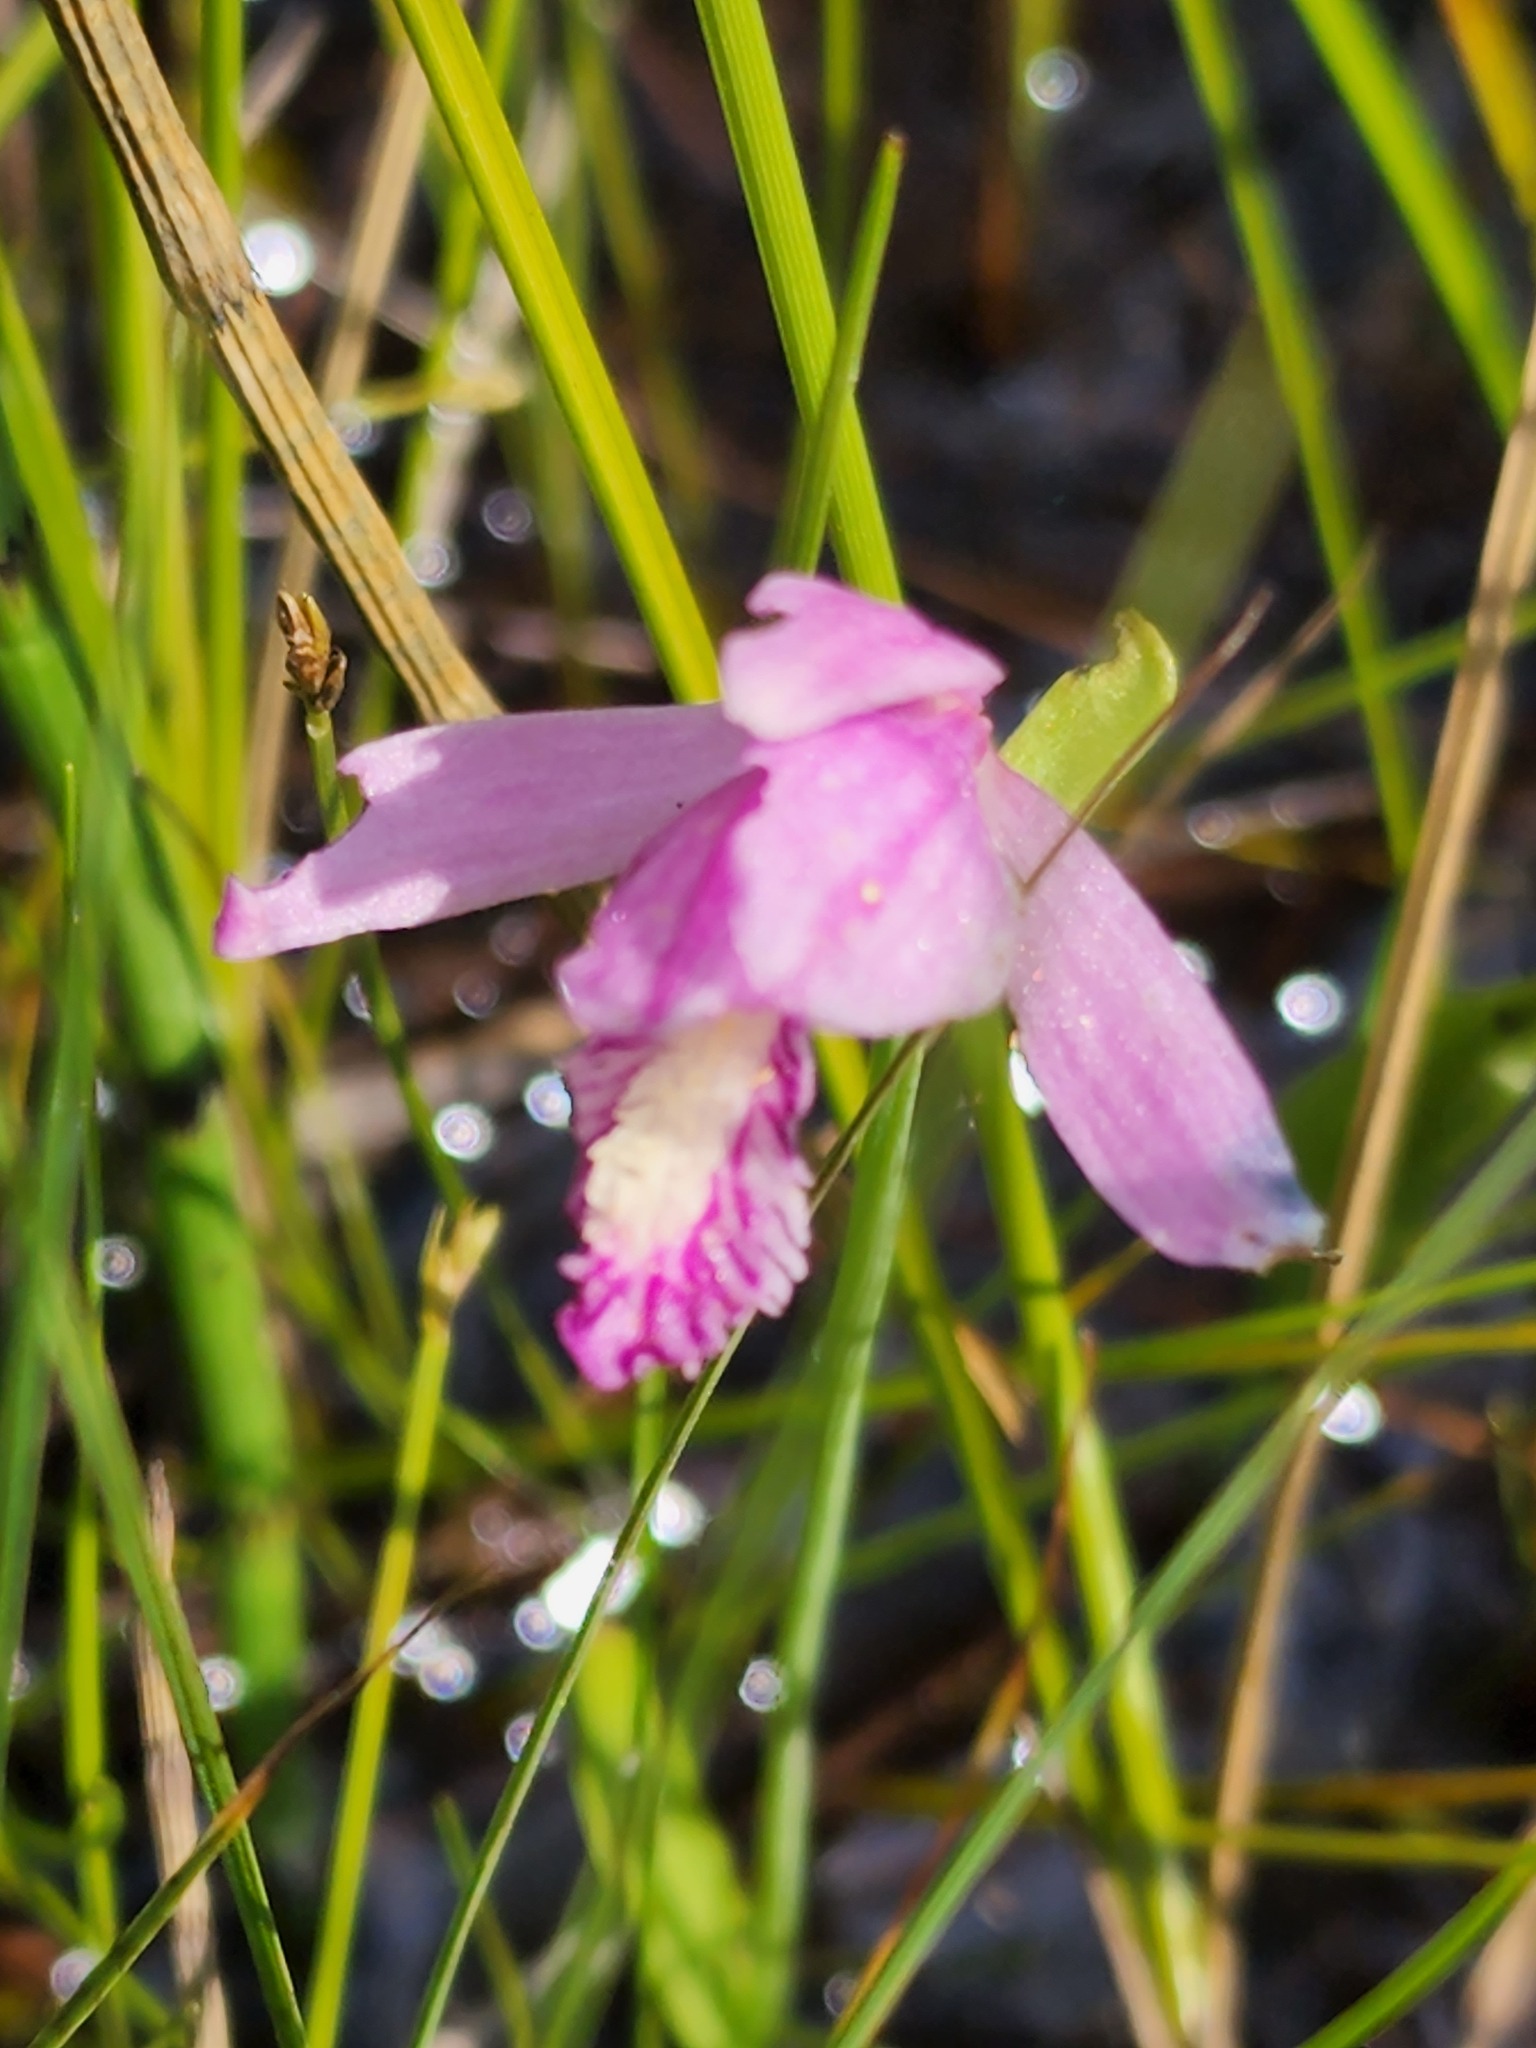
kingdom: Plantae
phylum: Tracheophyta
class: Liliopsida
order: Asparagales
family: Orchidaceae
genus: Pogonia
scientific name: Pogonia ophioglossoides
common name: Rose pogonia
